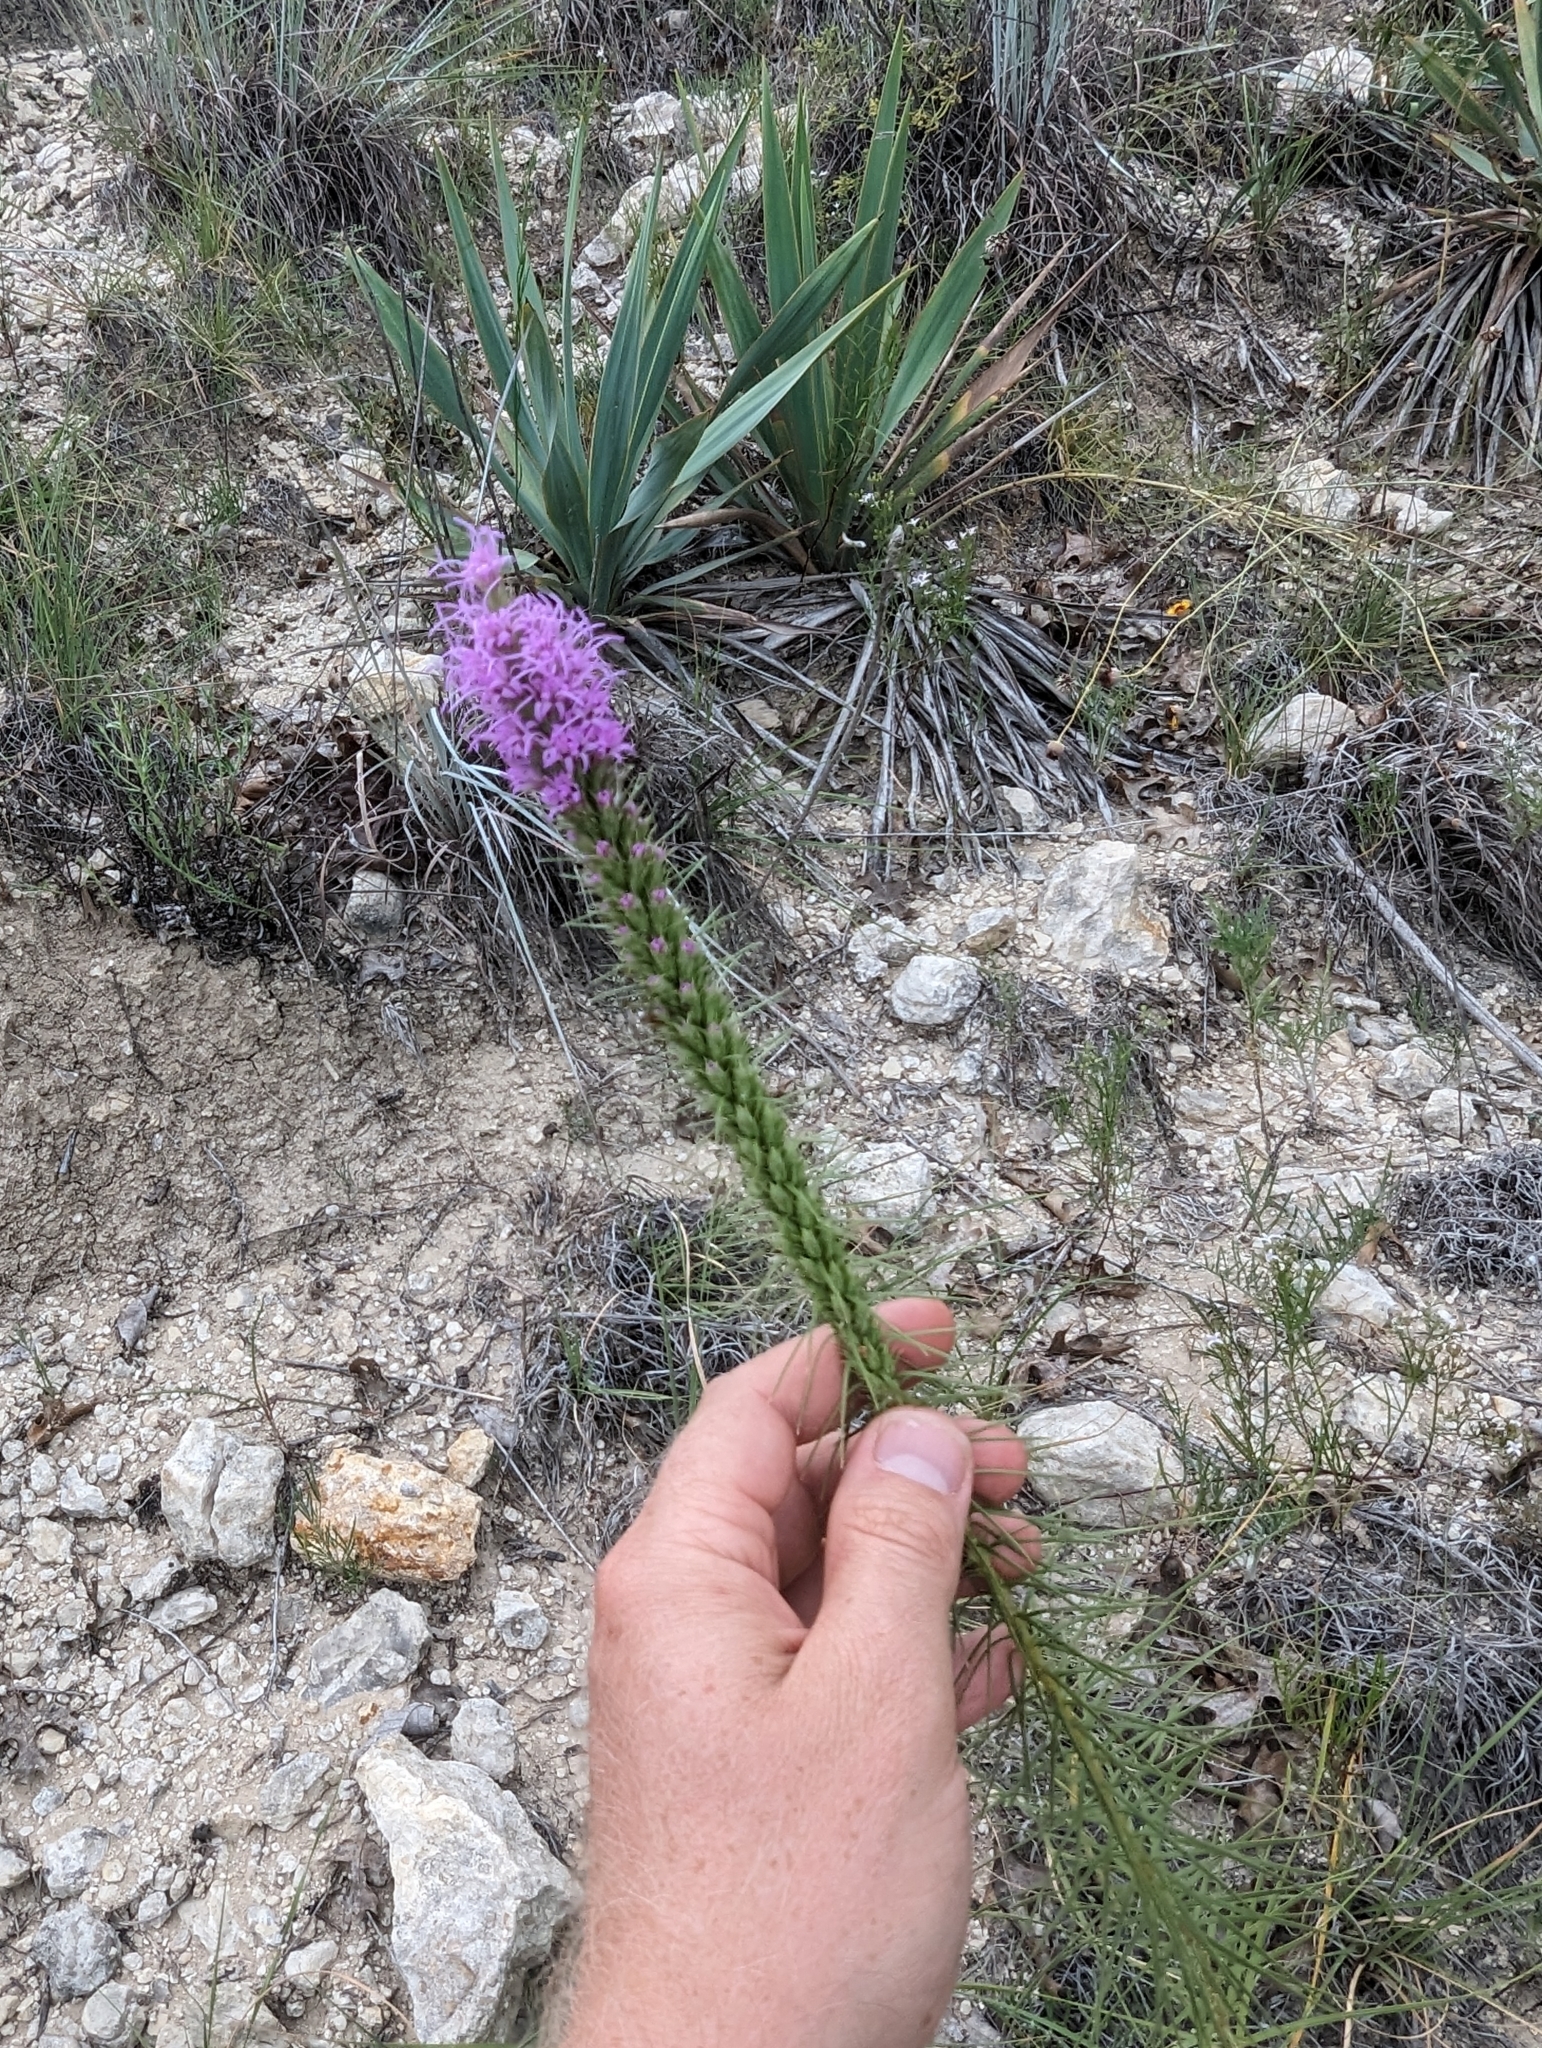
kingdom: Plantae
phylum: Tracheophyta
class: Magnoliopsida
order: Asterales
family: Asteraceae
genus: Liatris
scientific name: Liatris aestivalis
